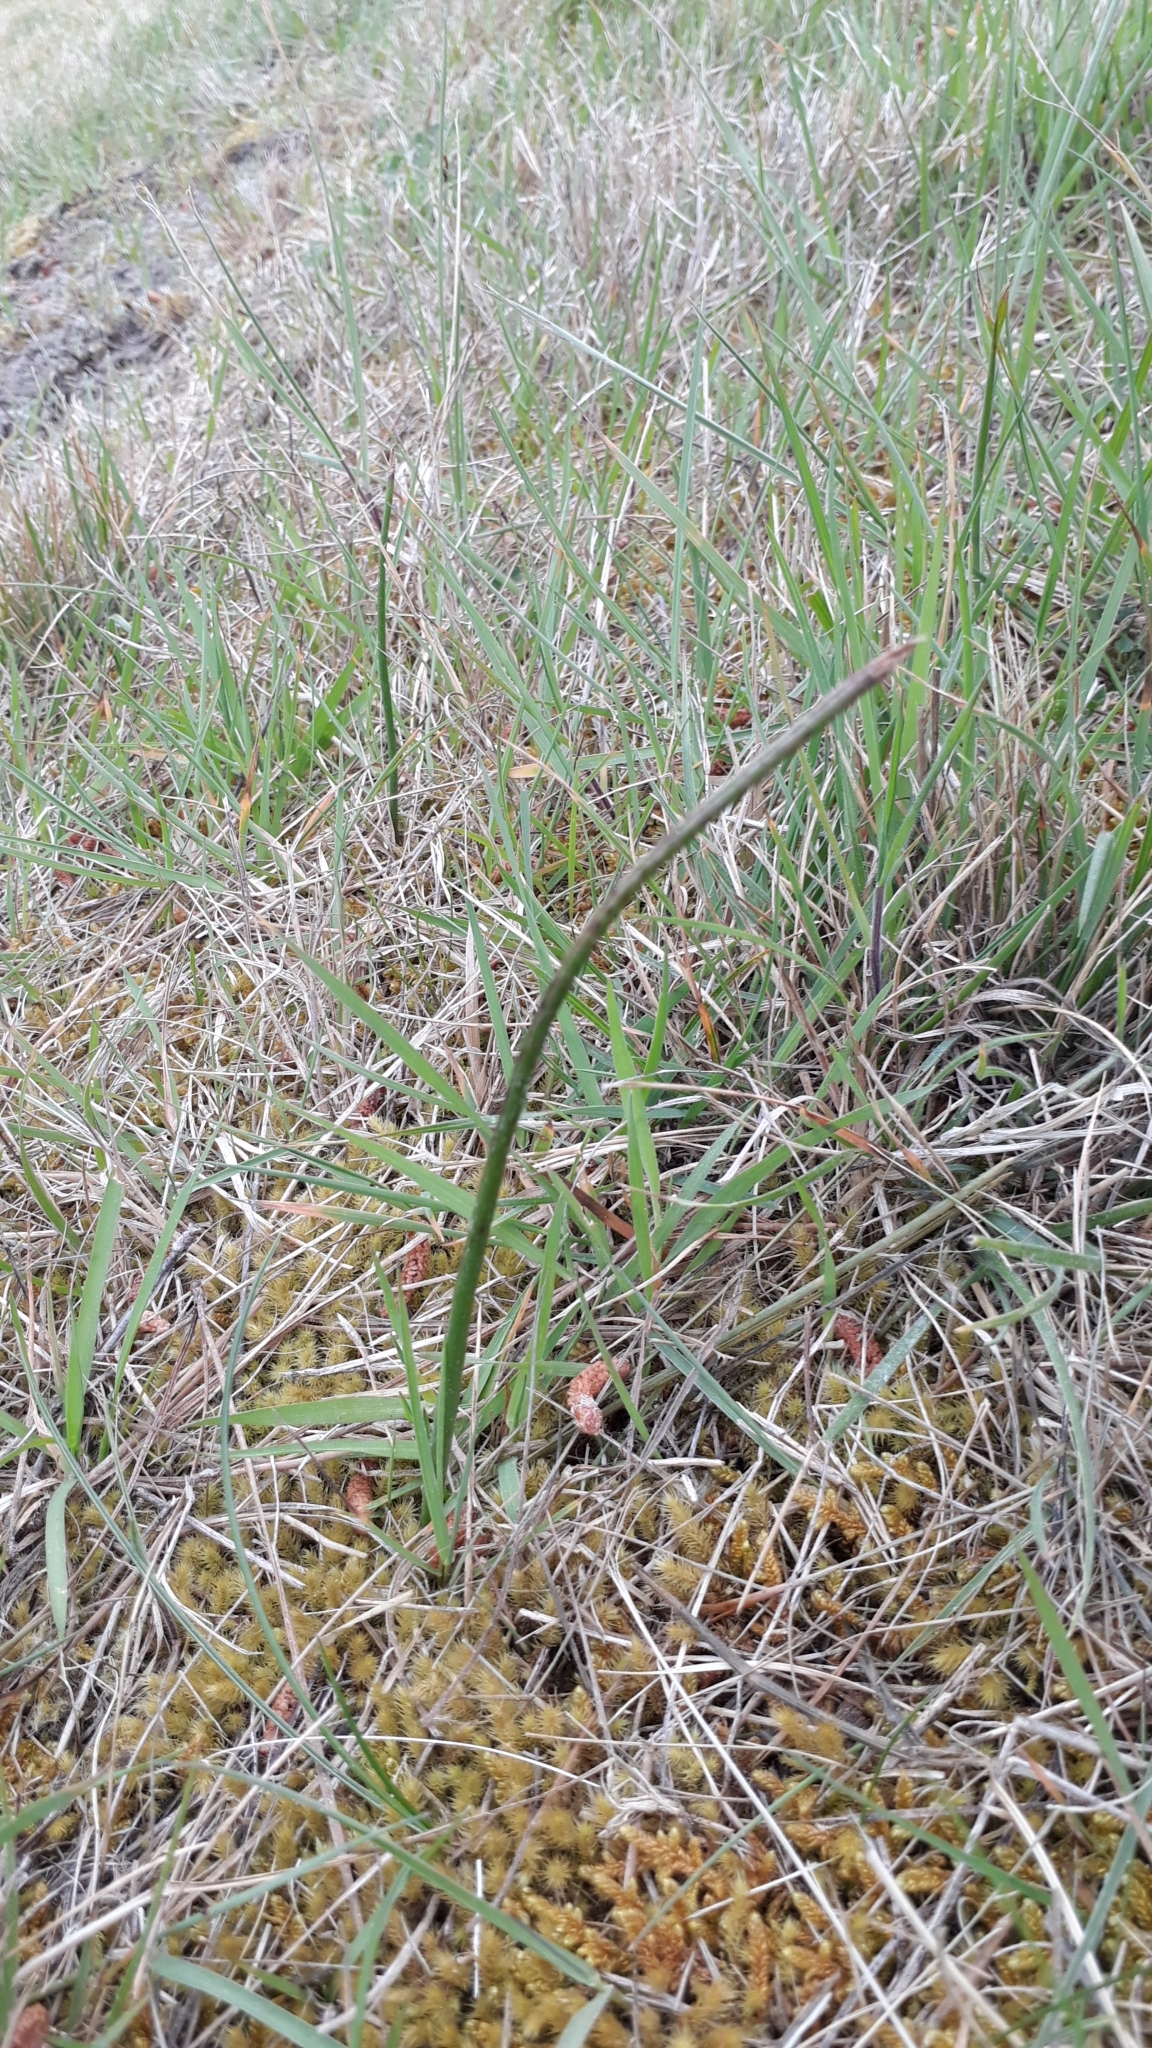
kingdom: Plantae
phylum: Tracheophyta
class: Liliopsida
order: Asparagales
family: Orchidaceae
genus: Microtis
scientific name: Microtis unifolia
